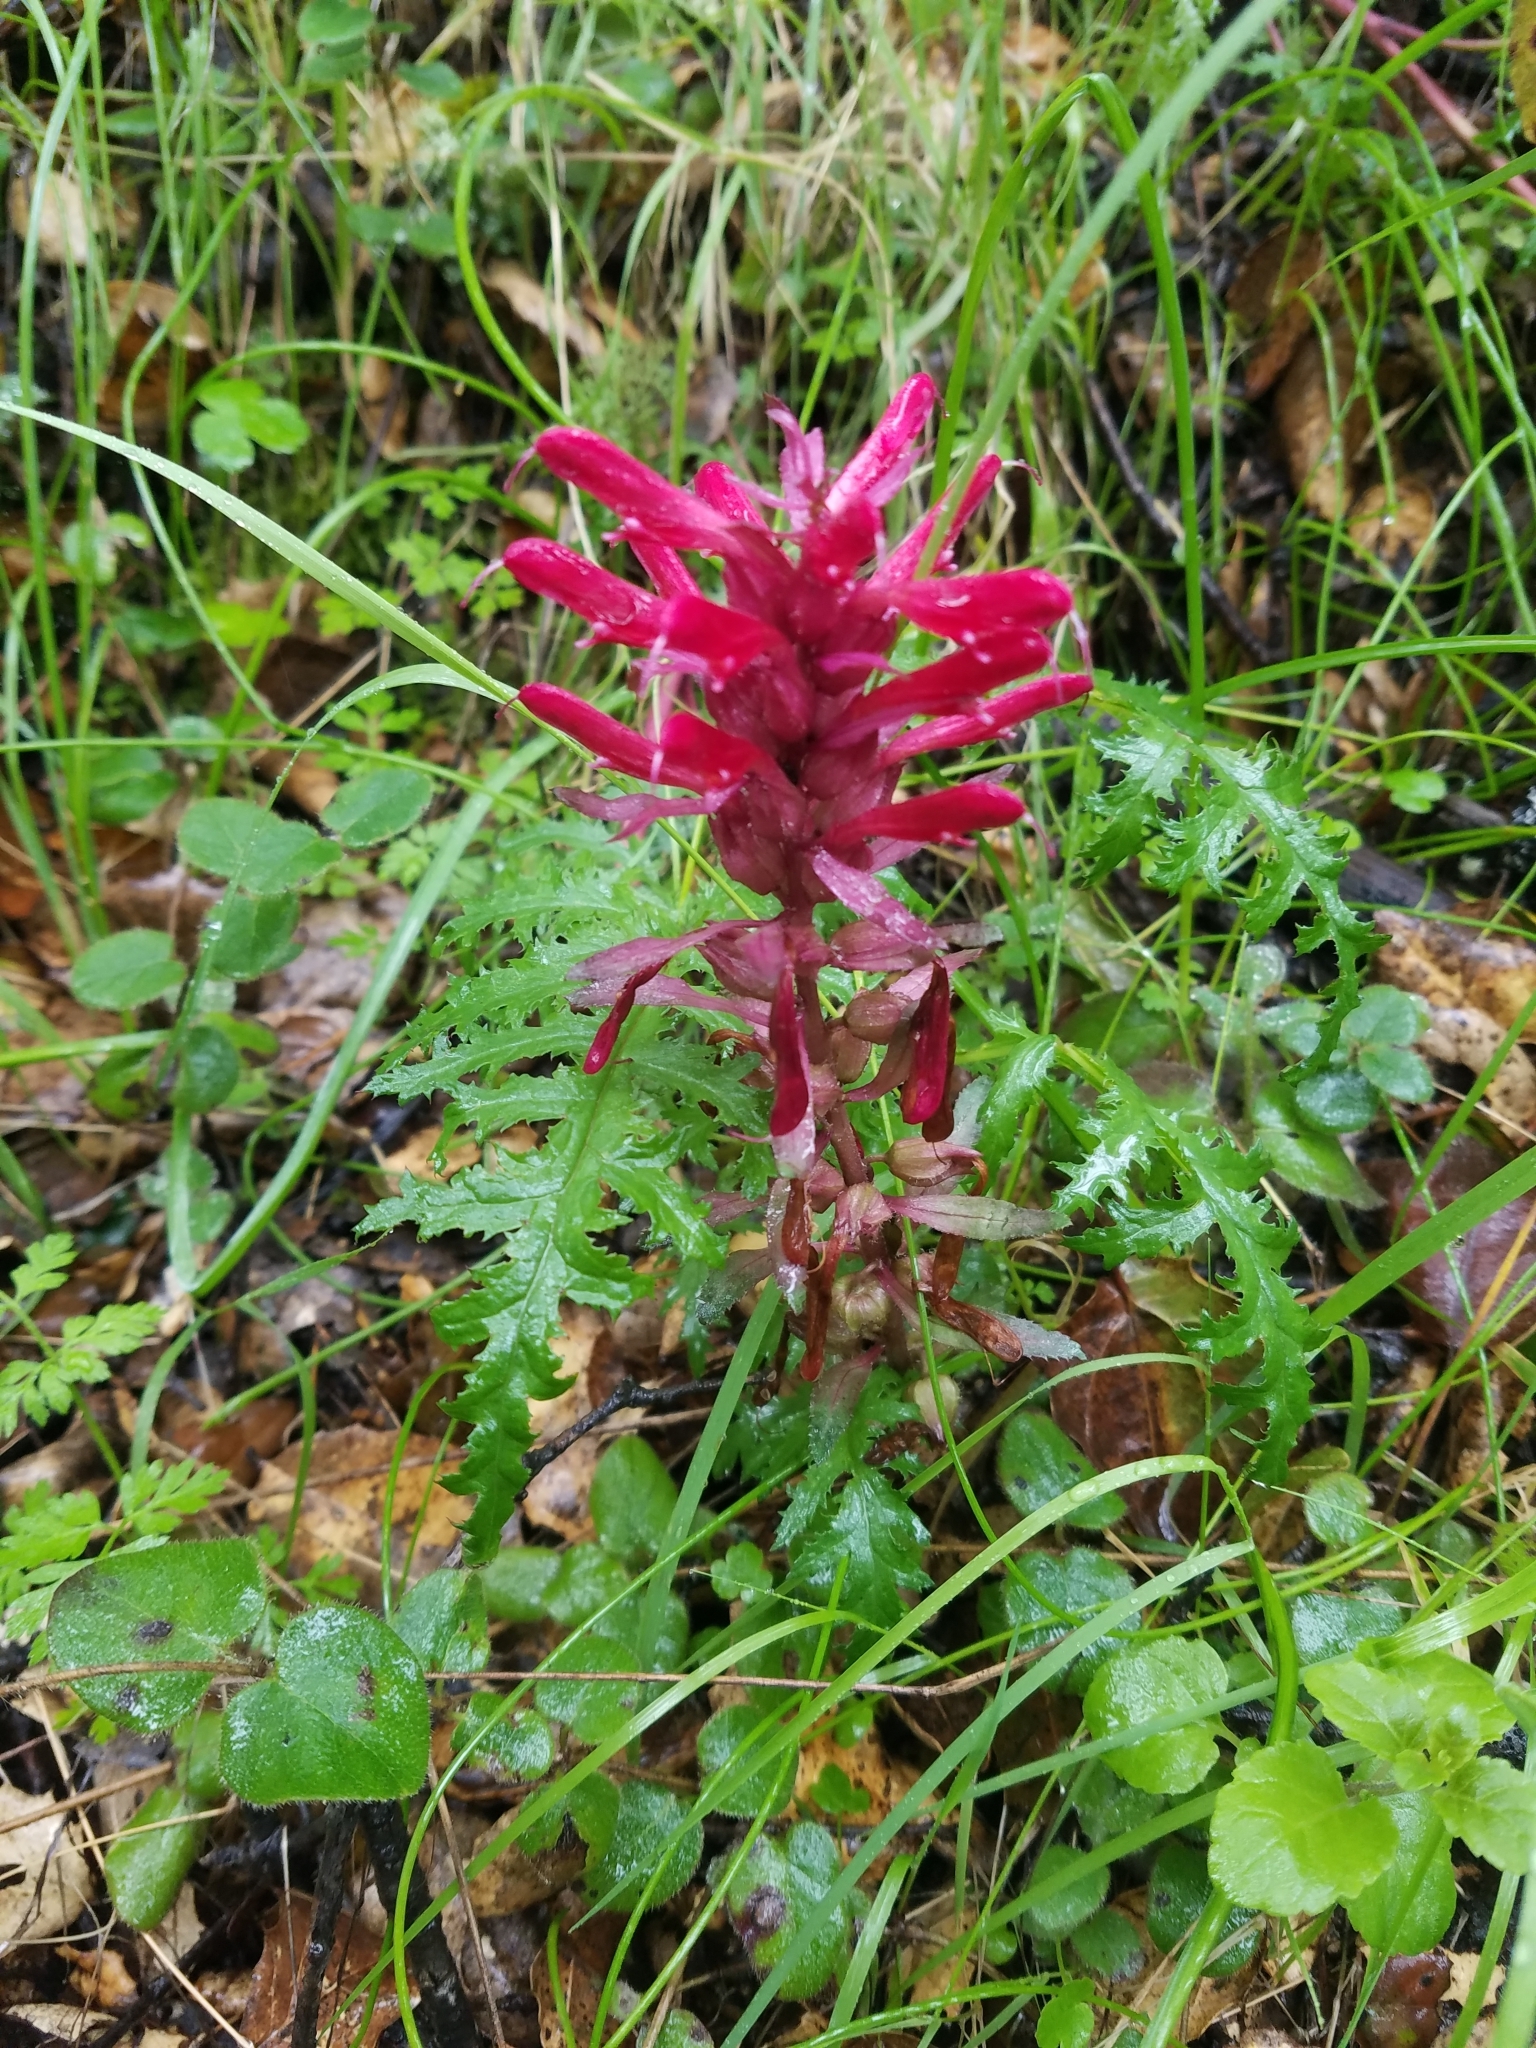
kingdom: Plantae
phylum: Tracheophyta
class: Magnoliopsida
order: Lamiales
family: Orobanchaceae
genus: Pedicularis
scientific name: Pedicularis densiflora
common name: Indian warrior
